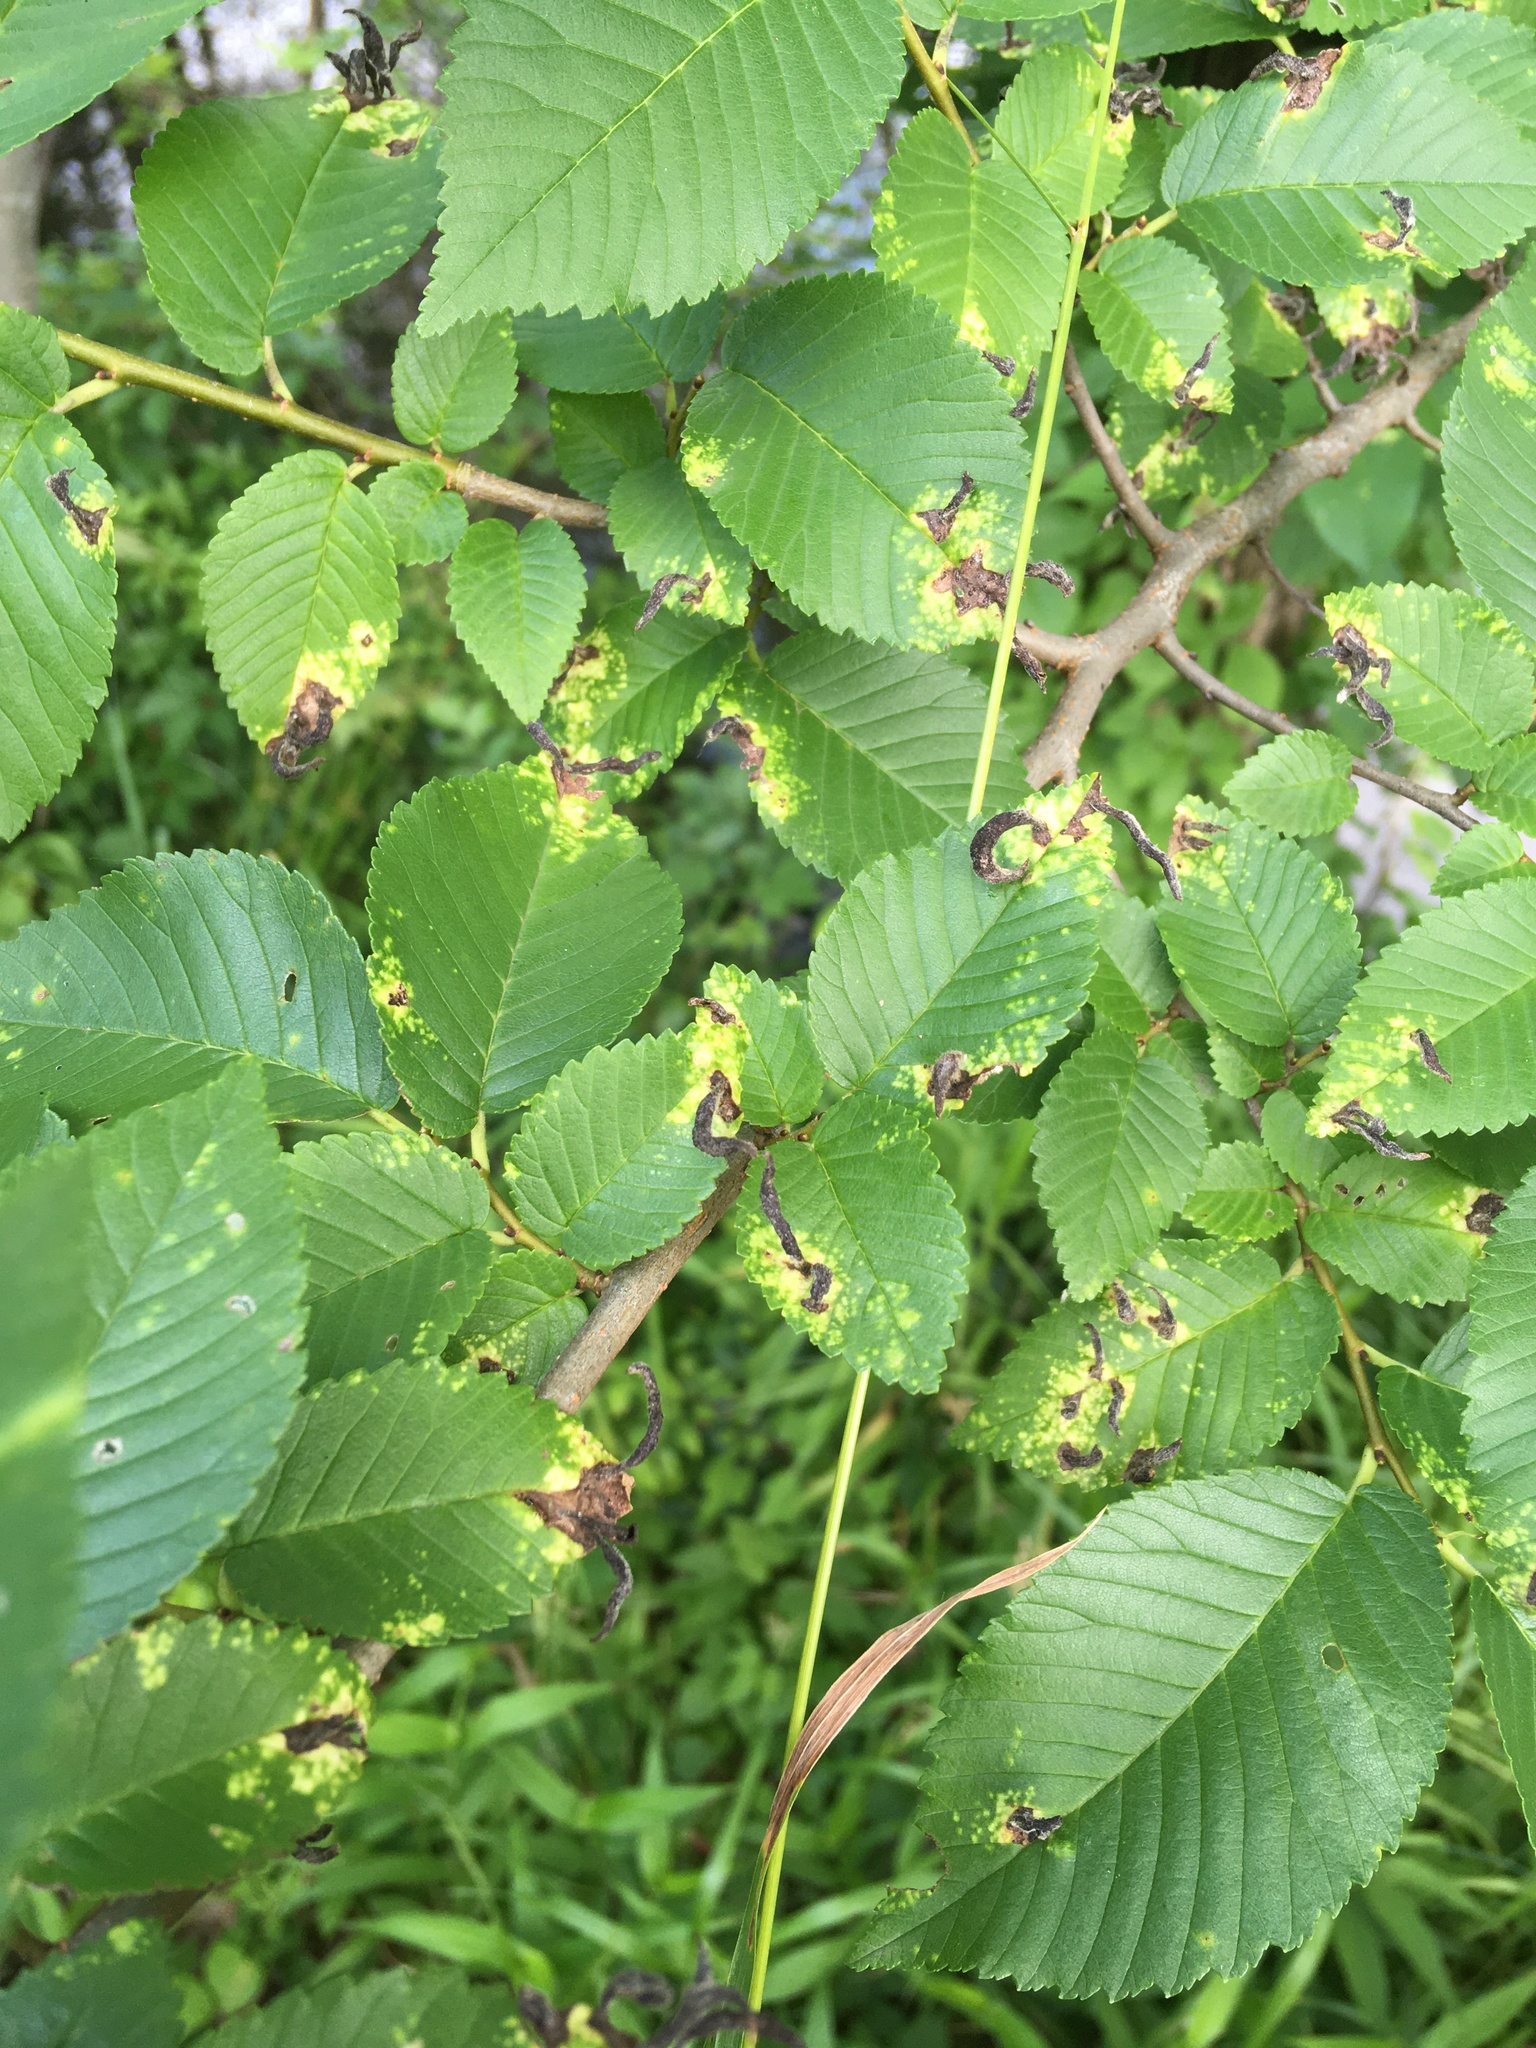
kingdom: Plantae
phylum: Tracheophyta
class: Magnoliopsida
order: Rosales
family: Ulmaceae
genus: Ulmus
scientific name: Ulmus pumila
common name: Siberian elm
